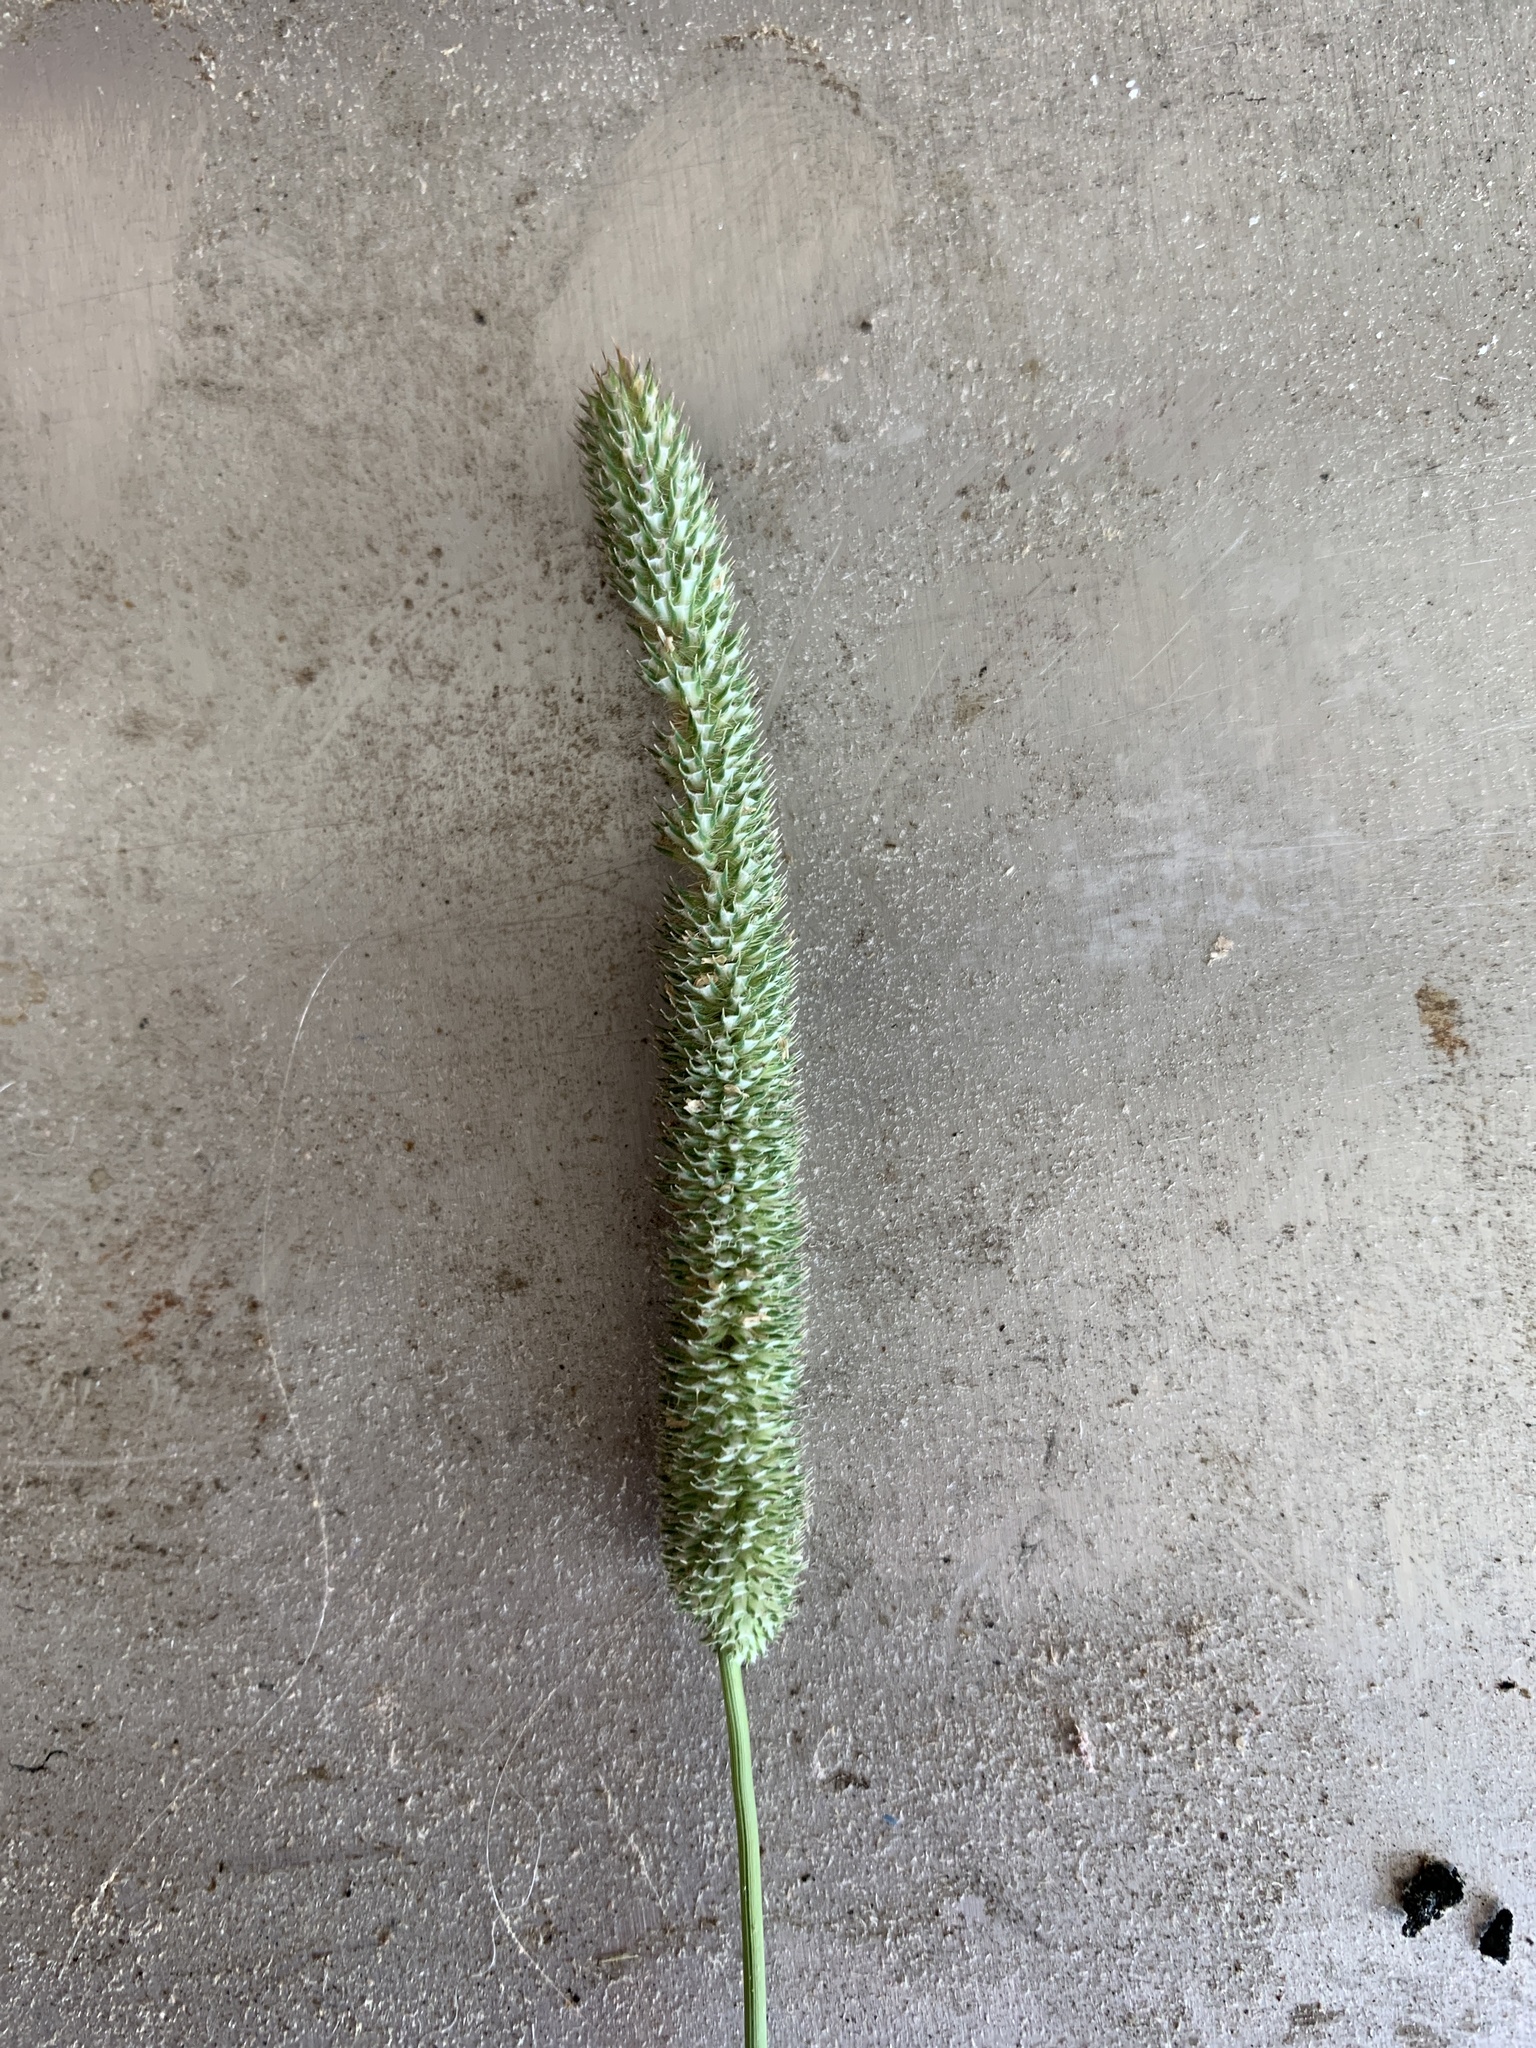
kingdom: Plantae
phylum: Tracheophyta
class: Liliopsida
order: Poales
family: Poaceae
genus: Phleum
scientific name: Phleum pratense
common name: Timothy grass
